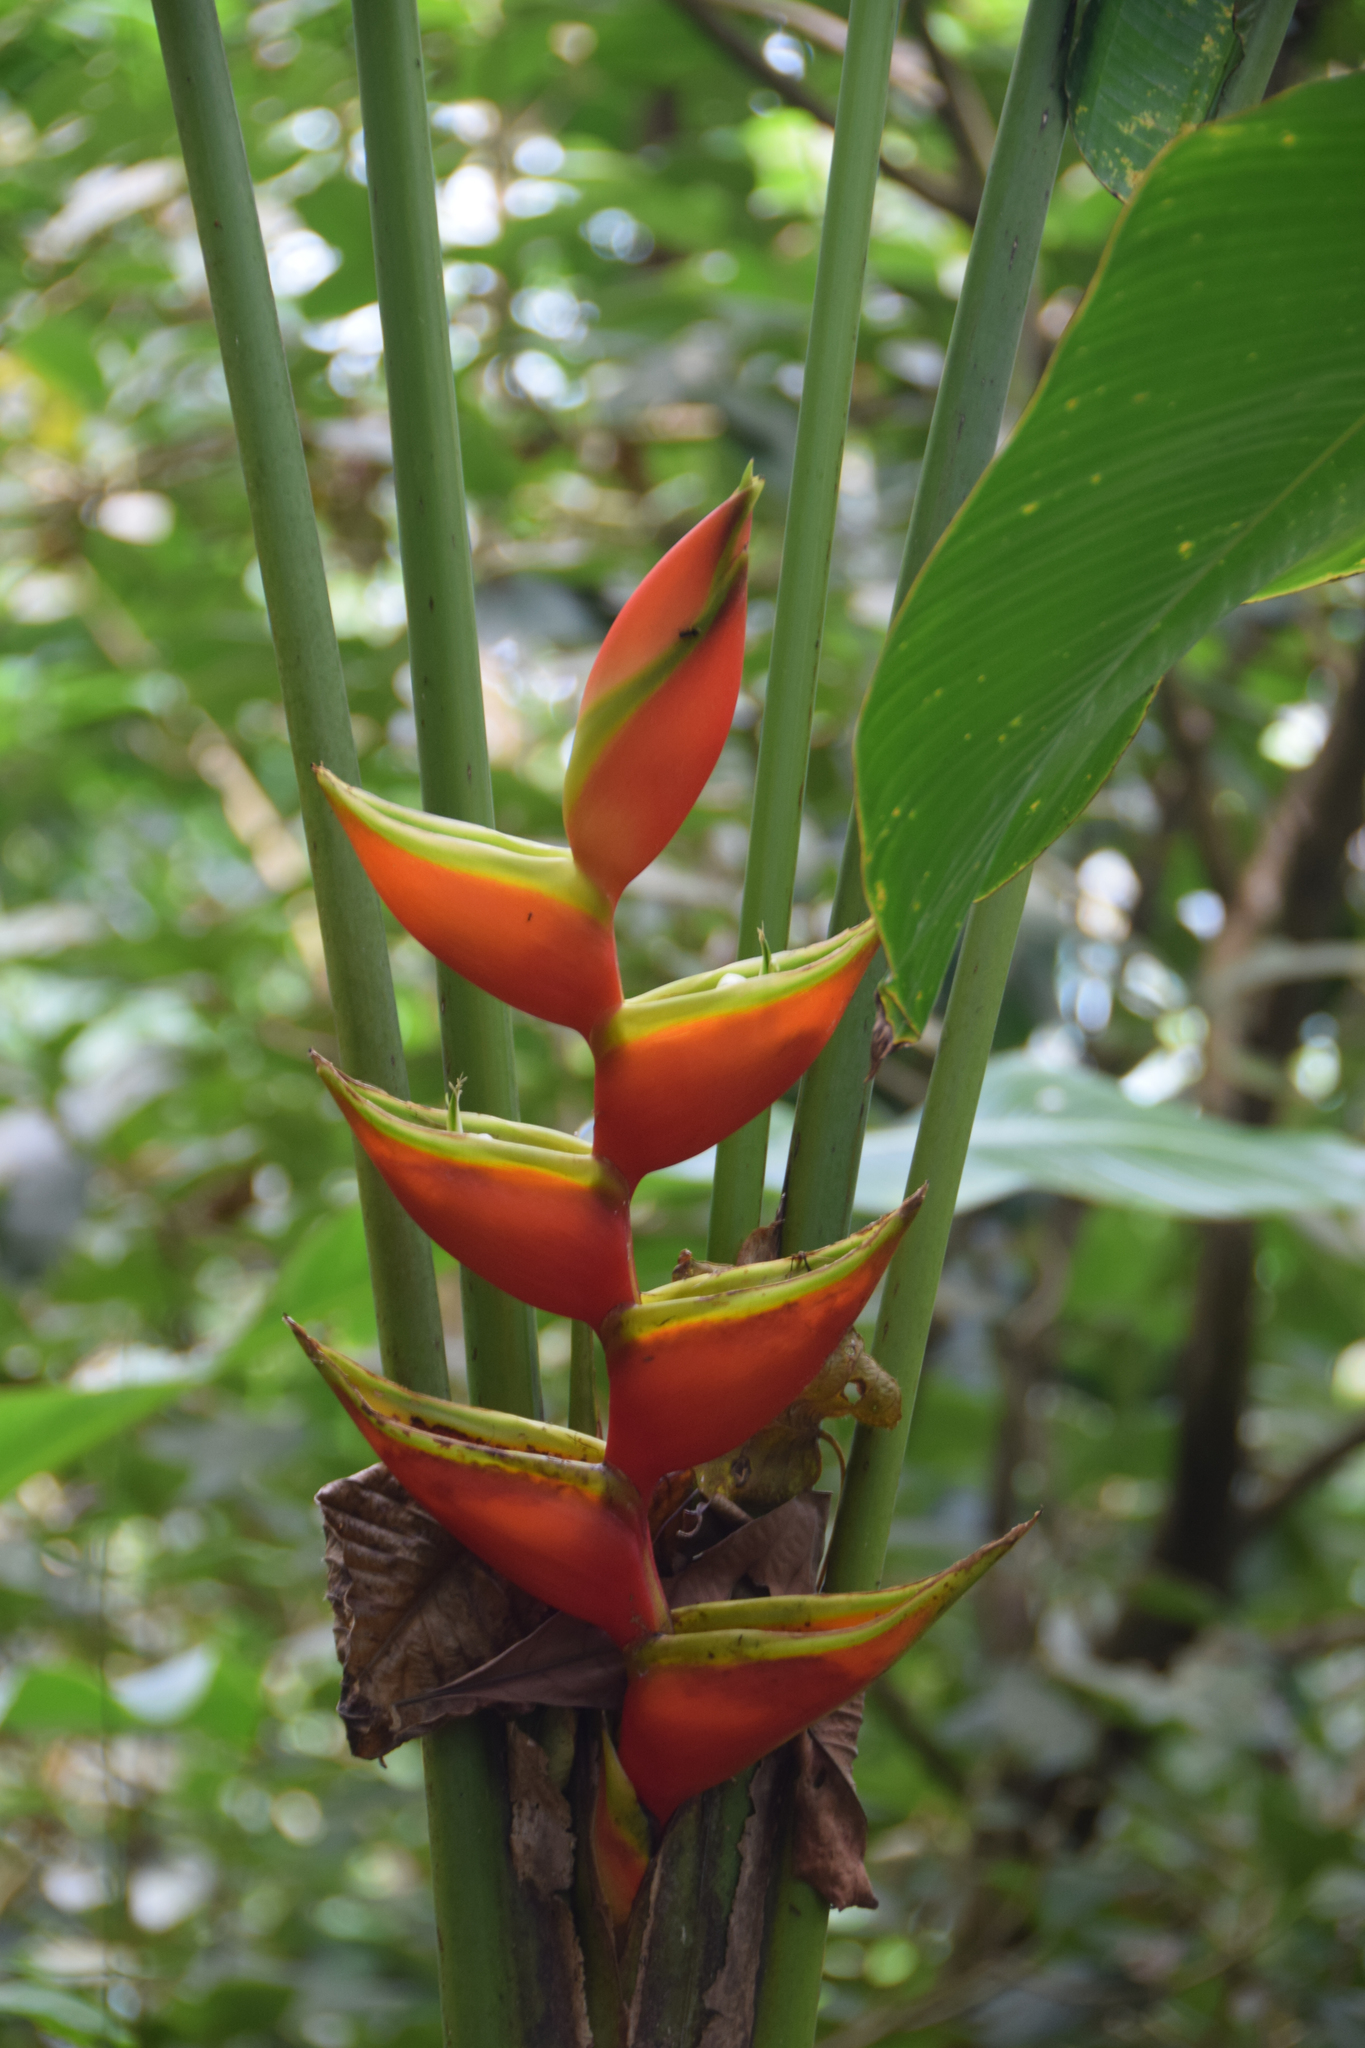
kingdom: Plantae
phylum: Tracheophyta
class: Liliopsida
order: Zingiberales
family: Heliconiaceae
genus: Heliconia
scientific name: Heliconia bihai
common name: Macaw flower
